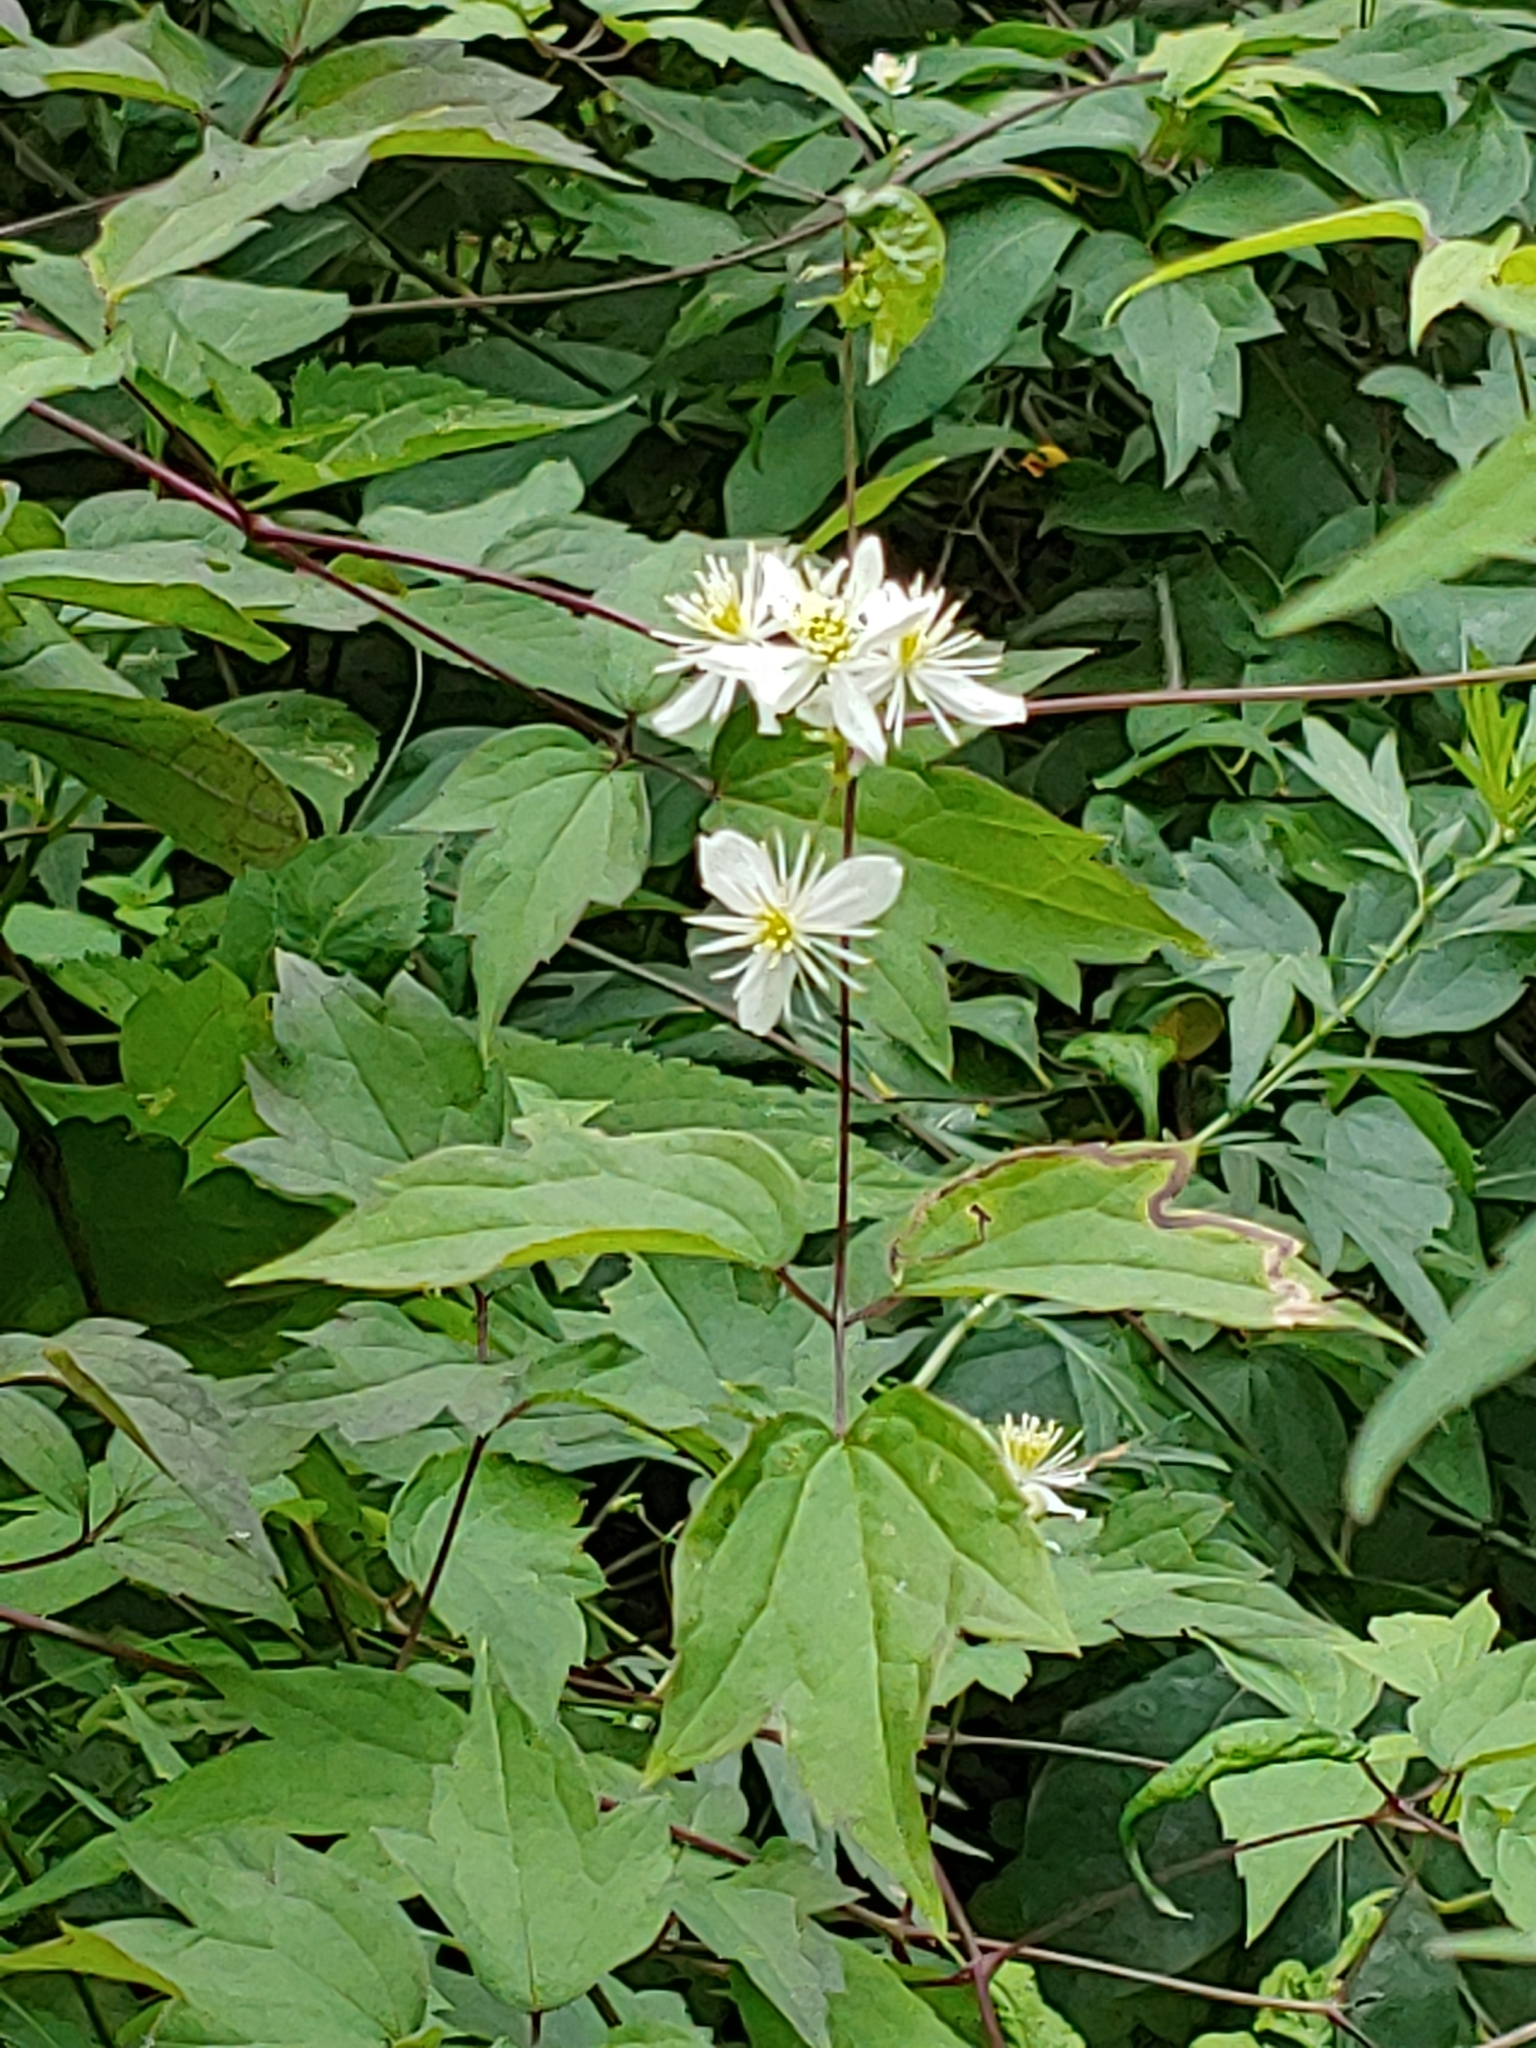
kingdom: Plantae
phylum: Tracheophyta
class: Magnoliopsida
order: Ranunculales
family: Ranunculaceae
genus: Clematis
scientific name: Clematis virginiana
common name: Virgin's-bower
